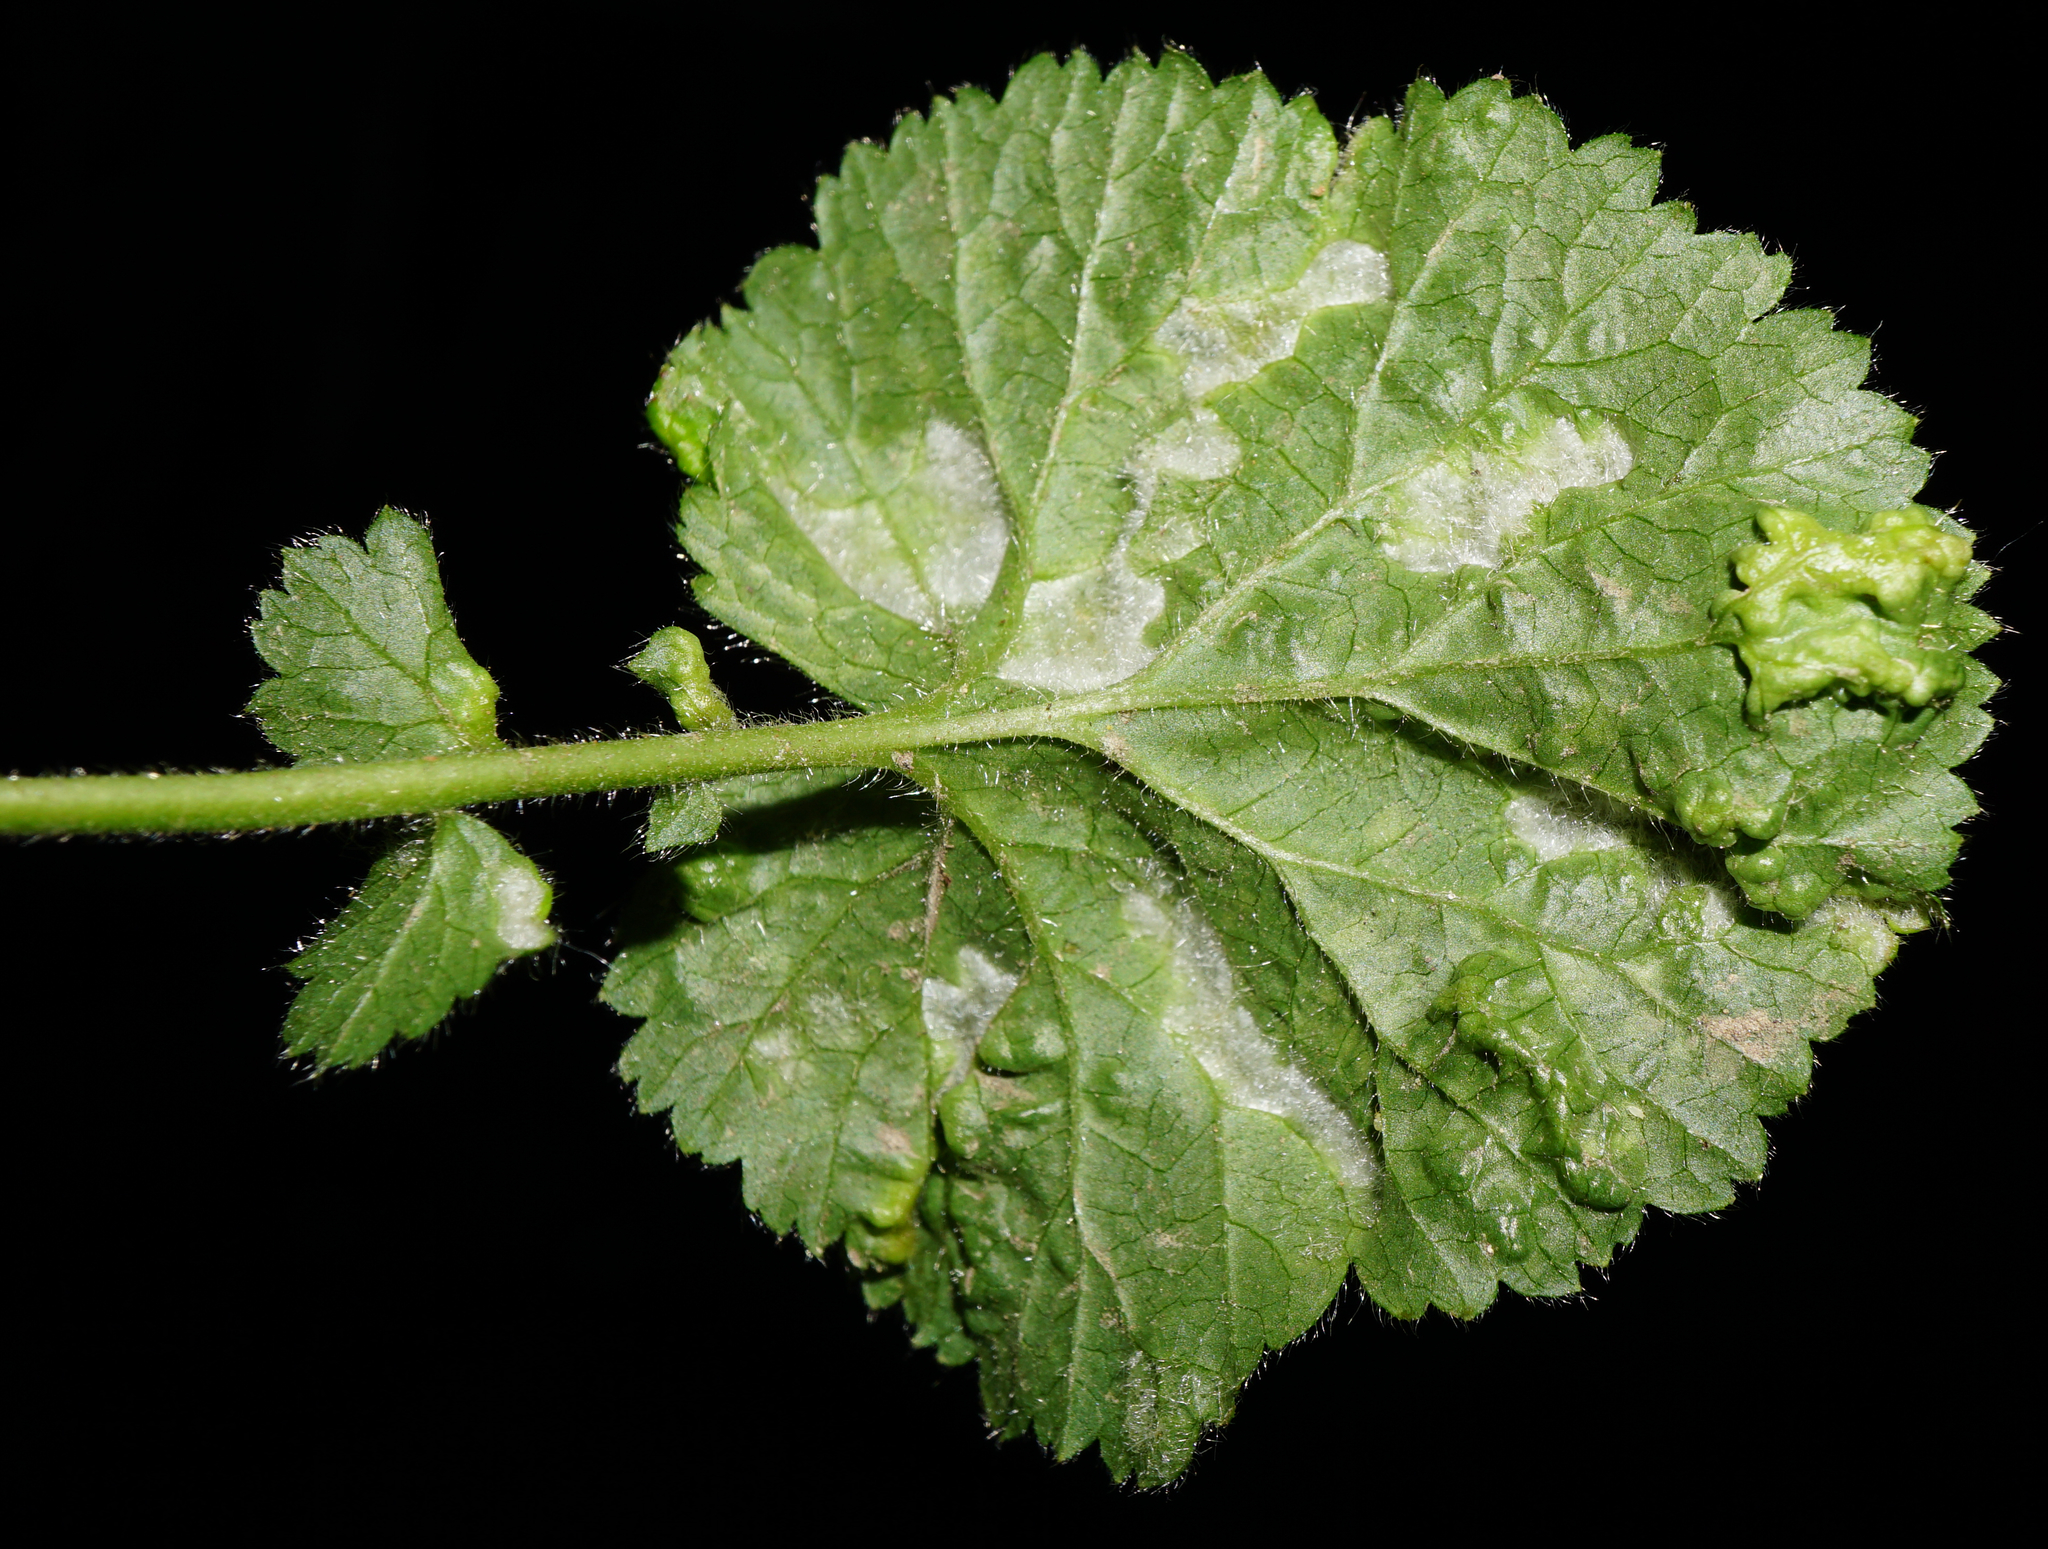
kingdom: Animalia
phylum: Arthropoda
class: Arachnida
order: Trombidiformes
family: Eriophyidae
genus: Cecidophyes
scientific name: Cecidophyes nudus
